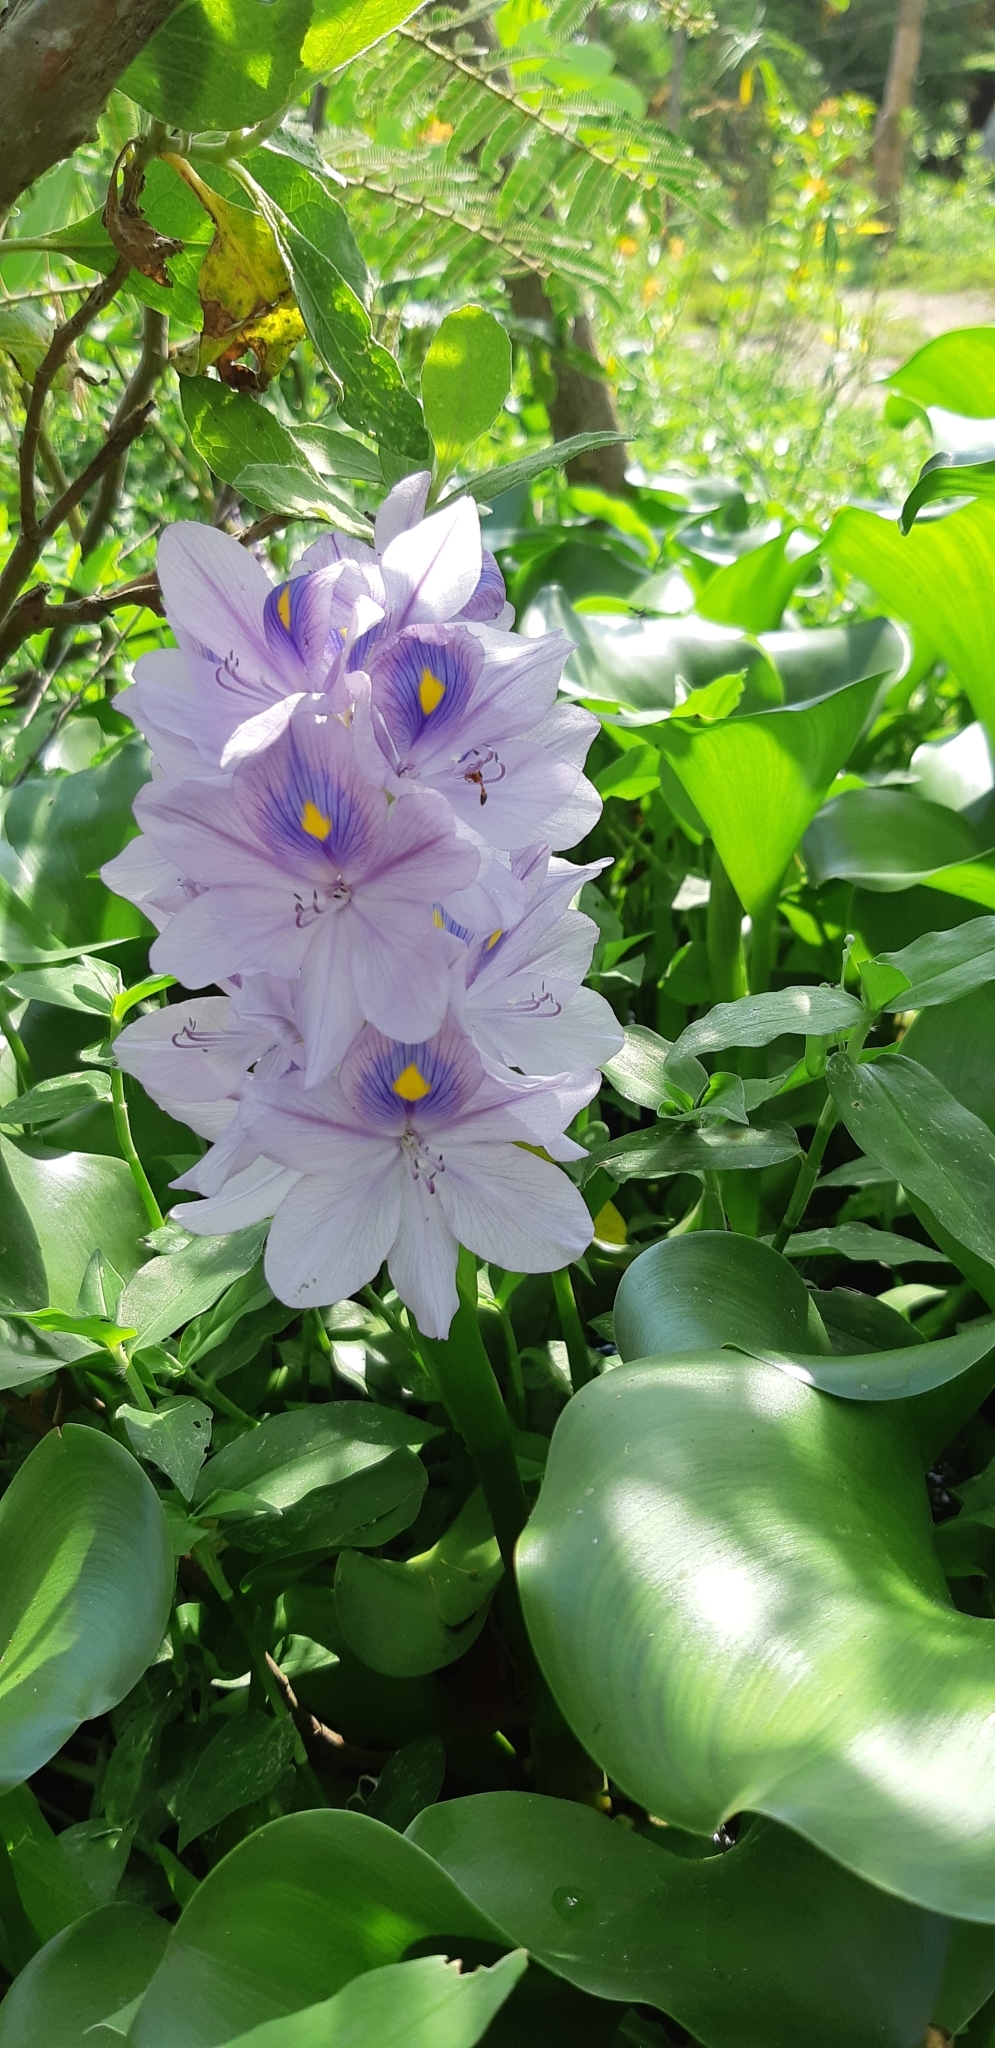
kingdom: Plantae
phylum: Tracheophyta
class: Liliopsida
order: Commelinales
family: Pontederiaceae
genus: Pontederia
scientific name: Pontederia crassipes
